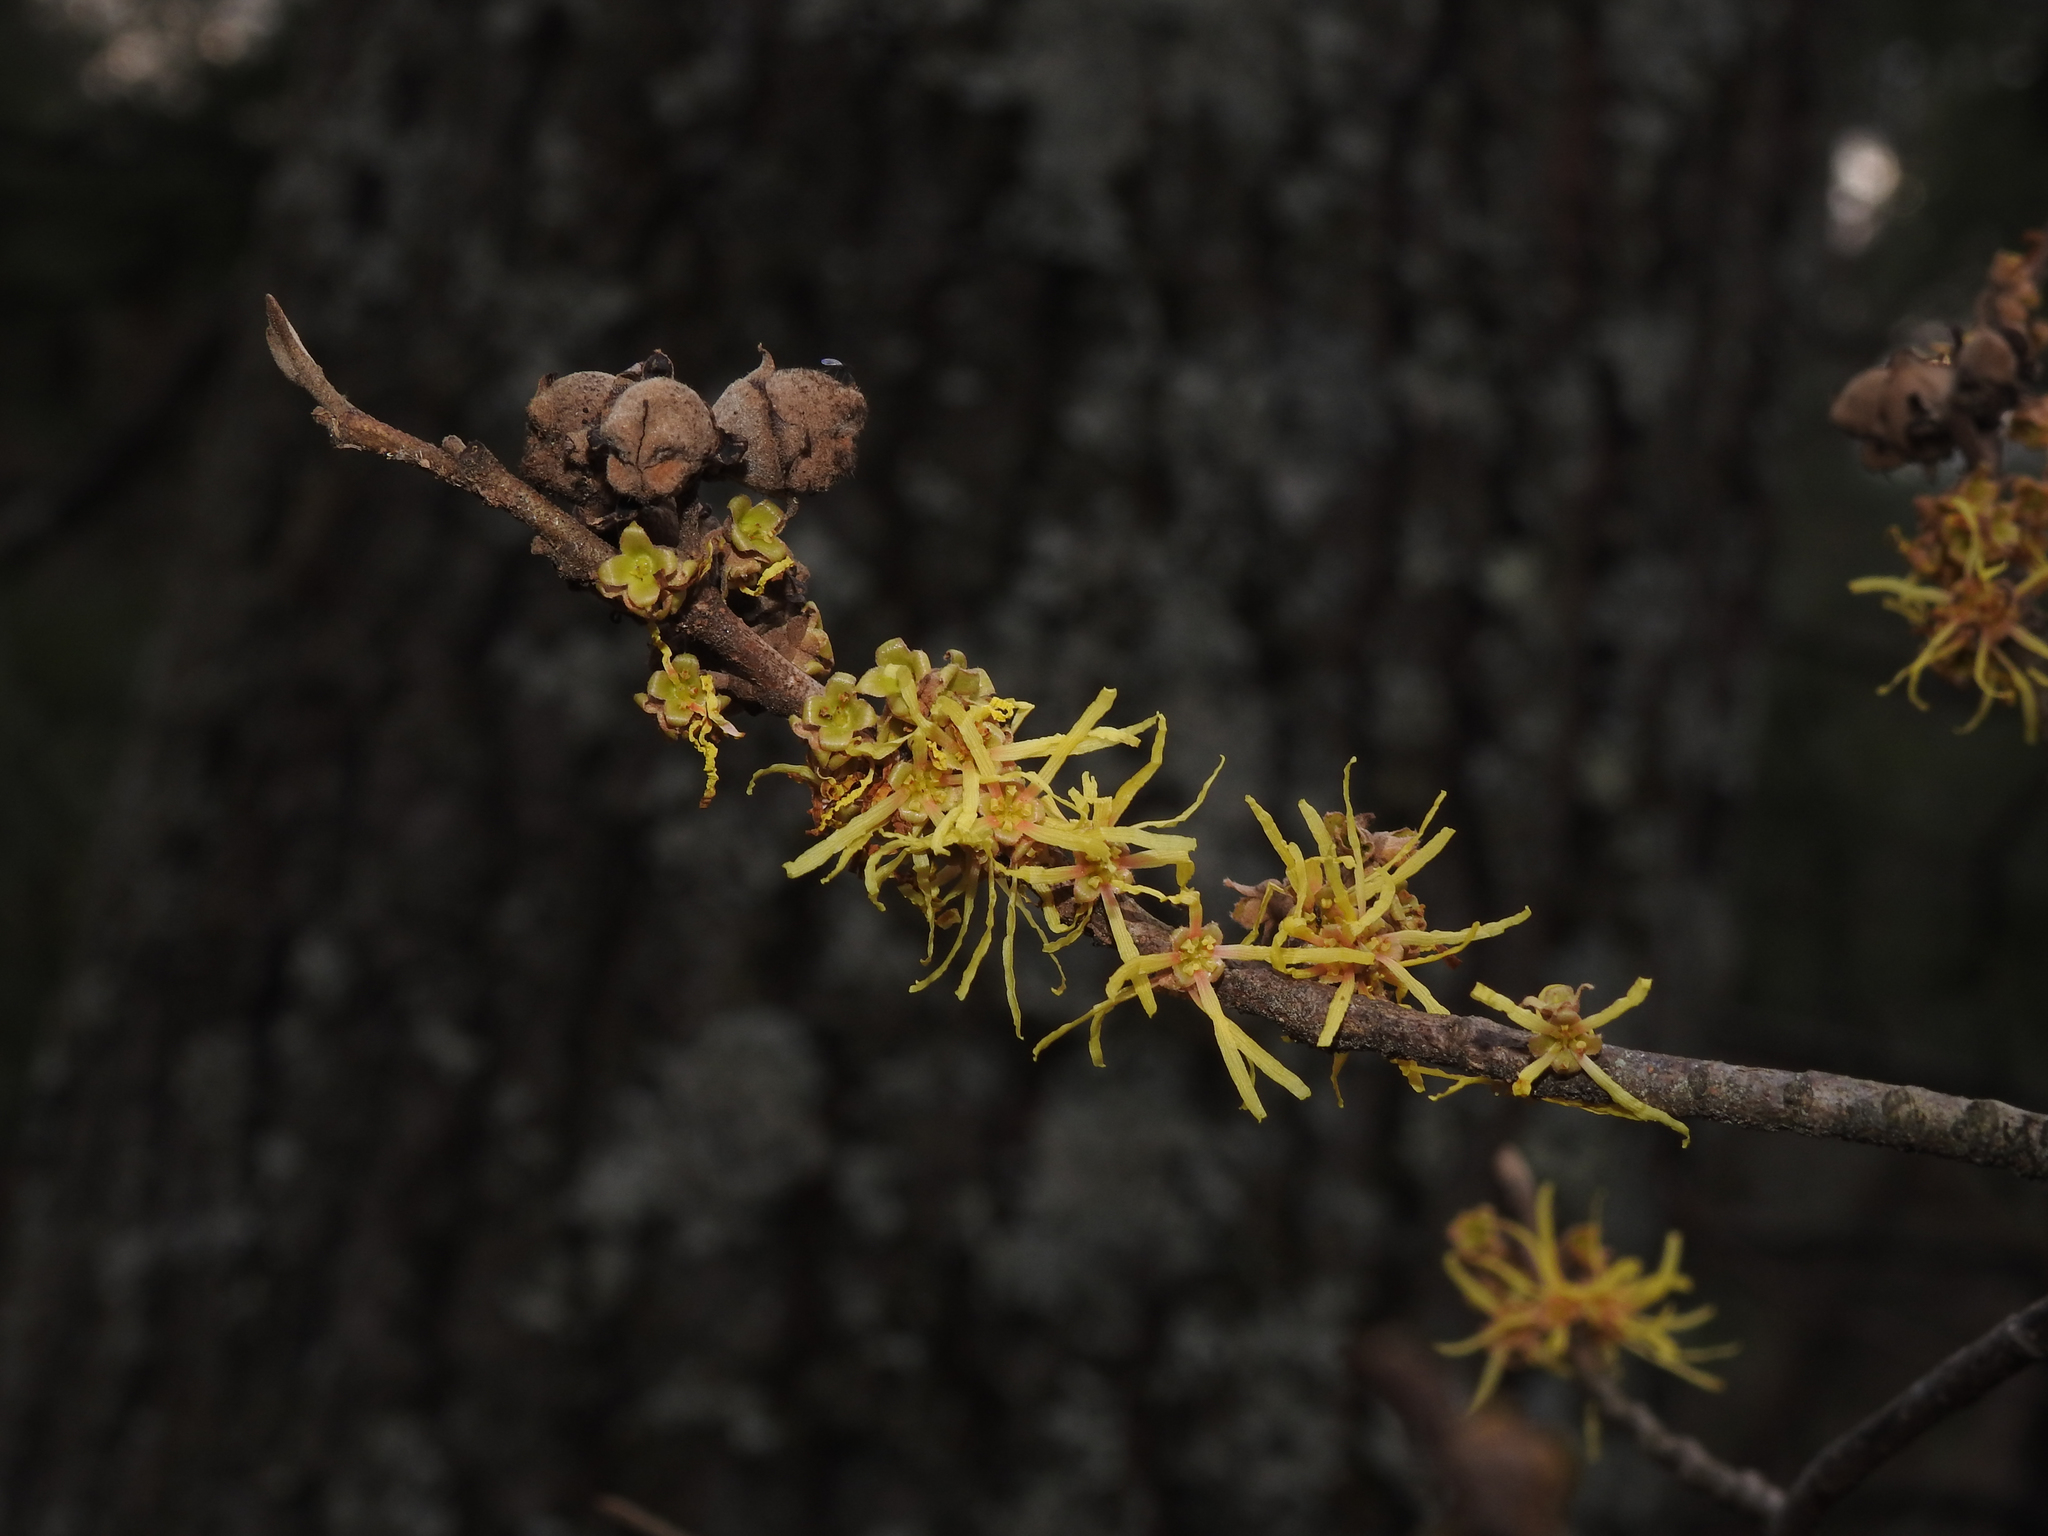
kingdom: Plantae
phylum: Tracheophyta
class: Magnoliopsida
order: Saxifragales
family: Hamamelidaceae
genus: Hamamelis
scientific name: Hamamelis virginiana
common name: Witch-hazel
